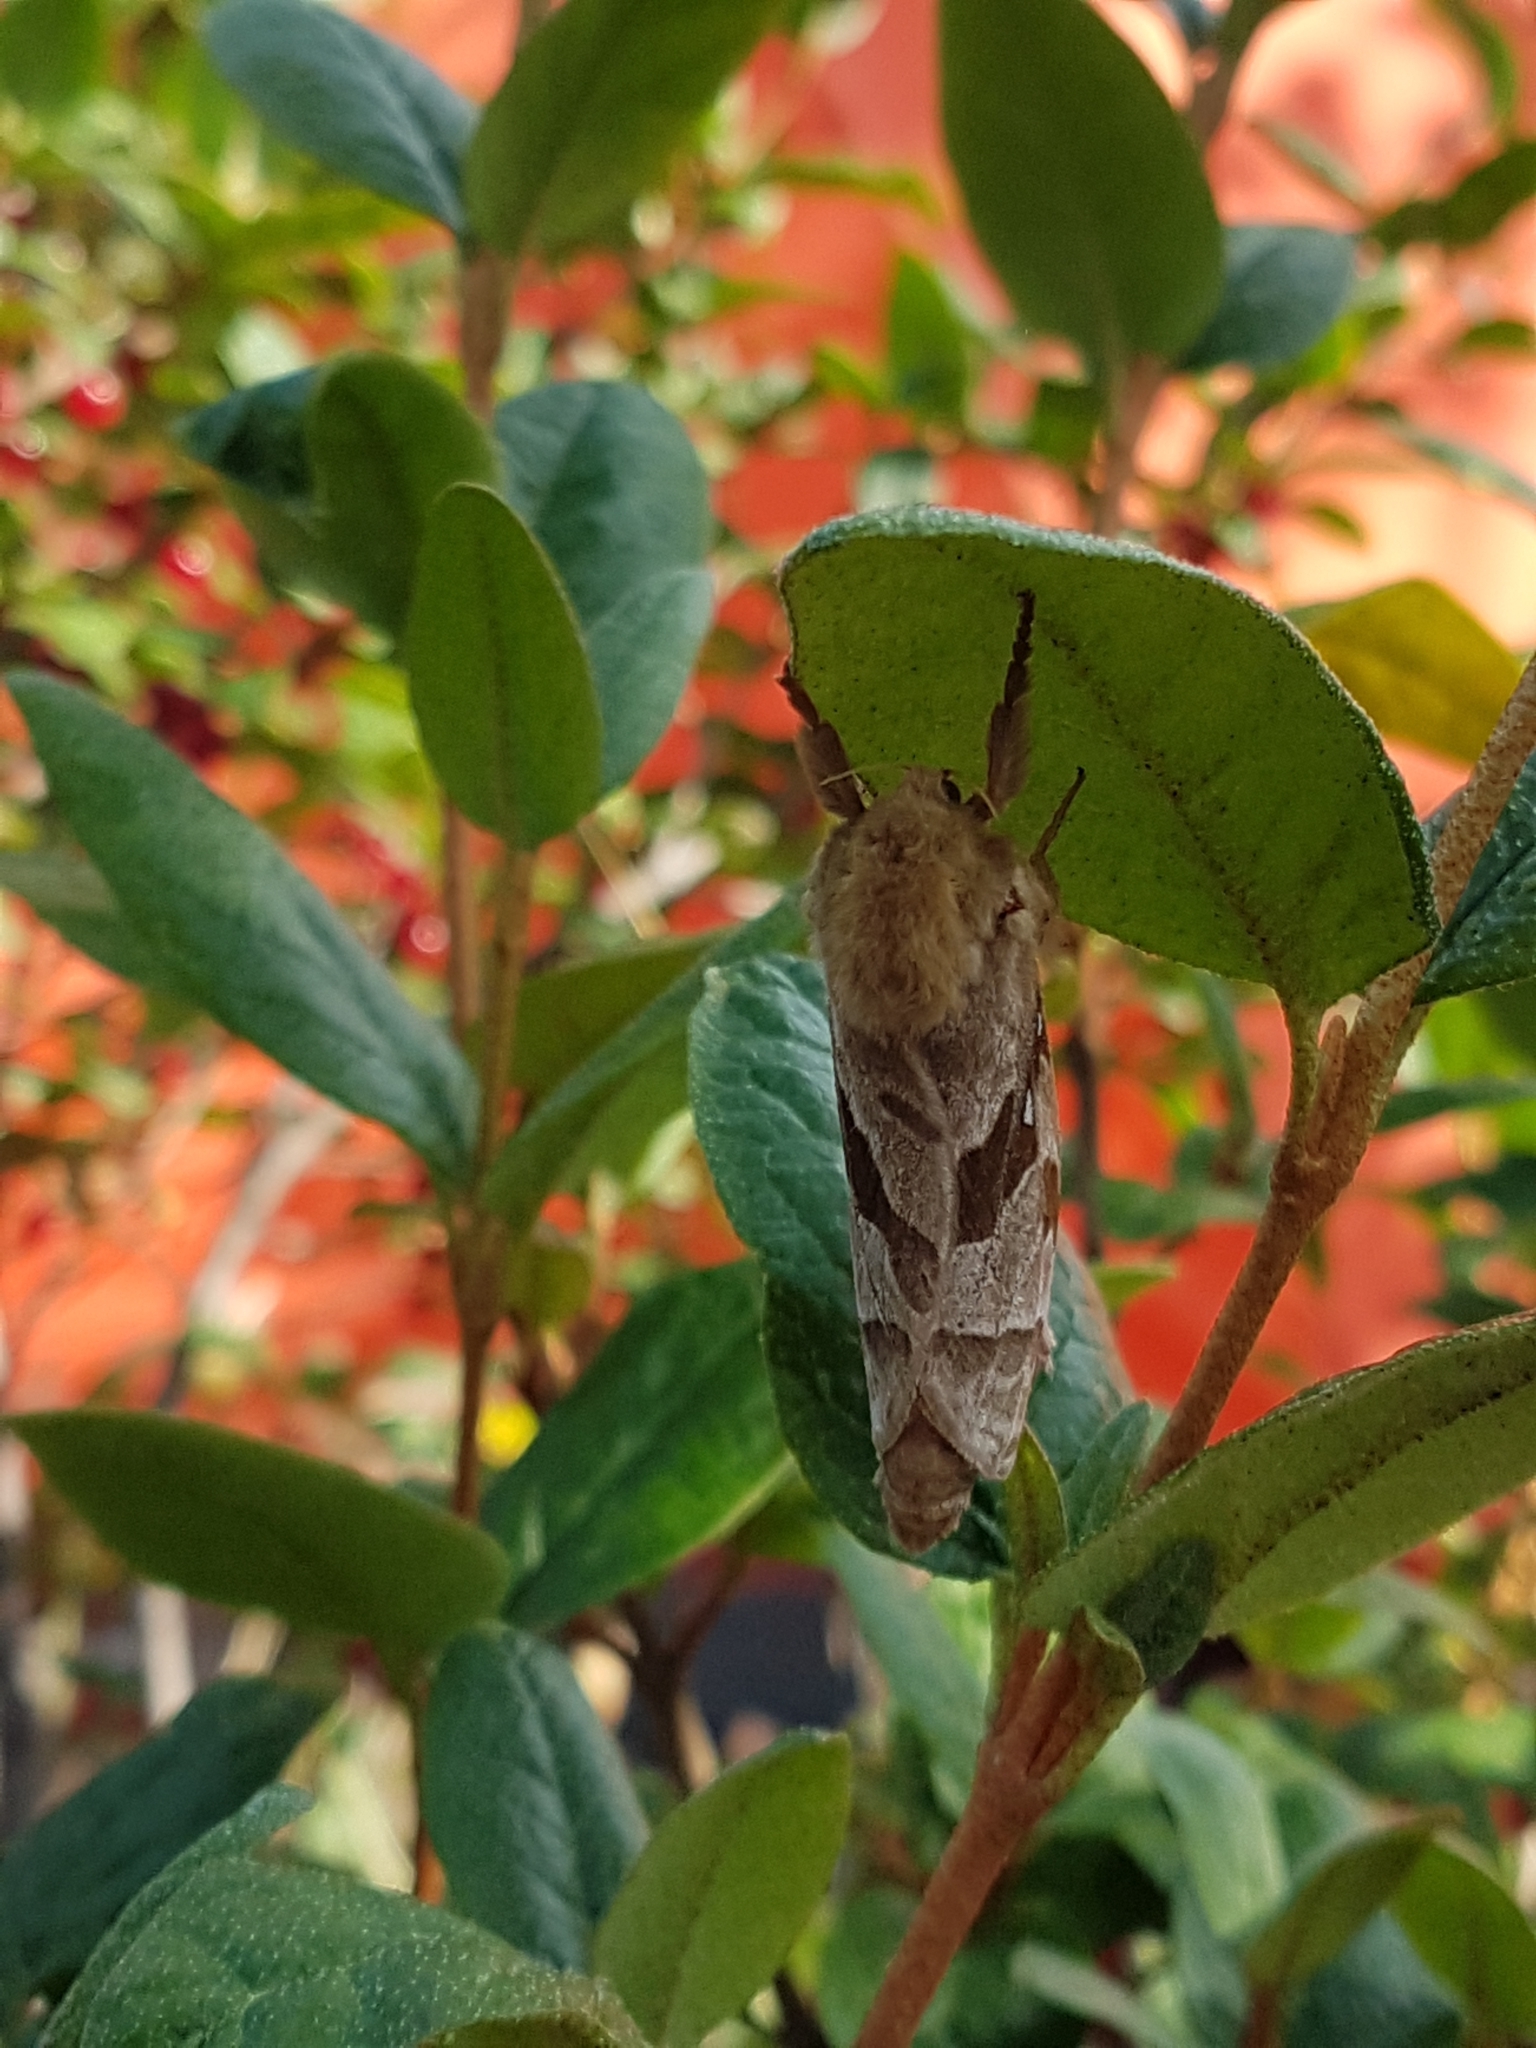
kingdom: Animalia
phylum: Arthropoda
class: Insecta
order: Lepidoptera
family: Hepialidae
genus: Sthenopis
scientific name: Sthenopis purpurascens
